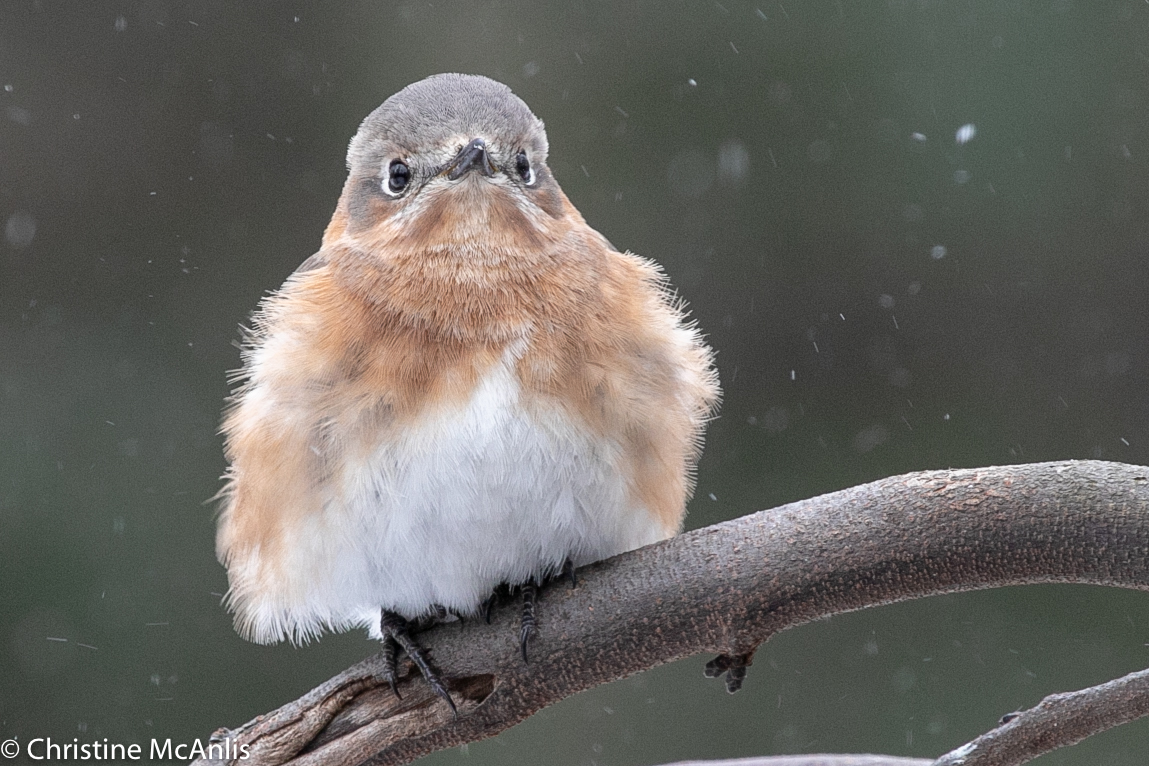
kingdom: Animalia
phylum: Chordata
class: Aves
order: Passeriformes
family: Turdidae
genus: Sialia
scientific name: Sialia sialis
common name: Eastern bluebird
